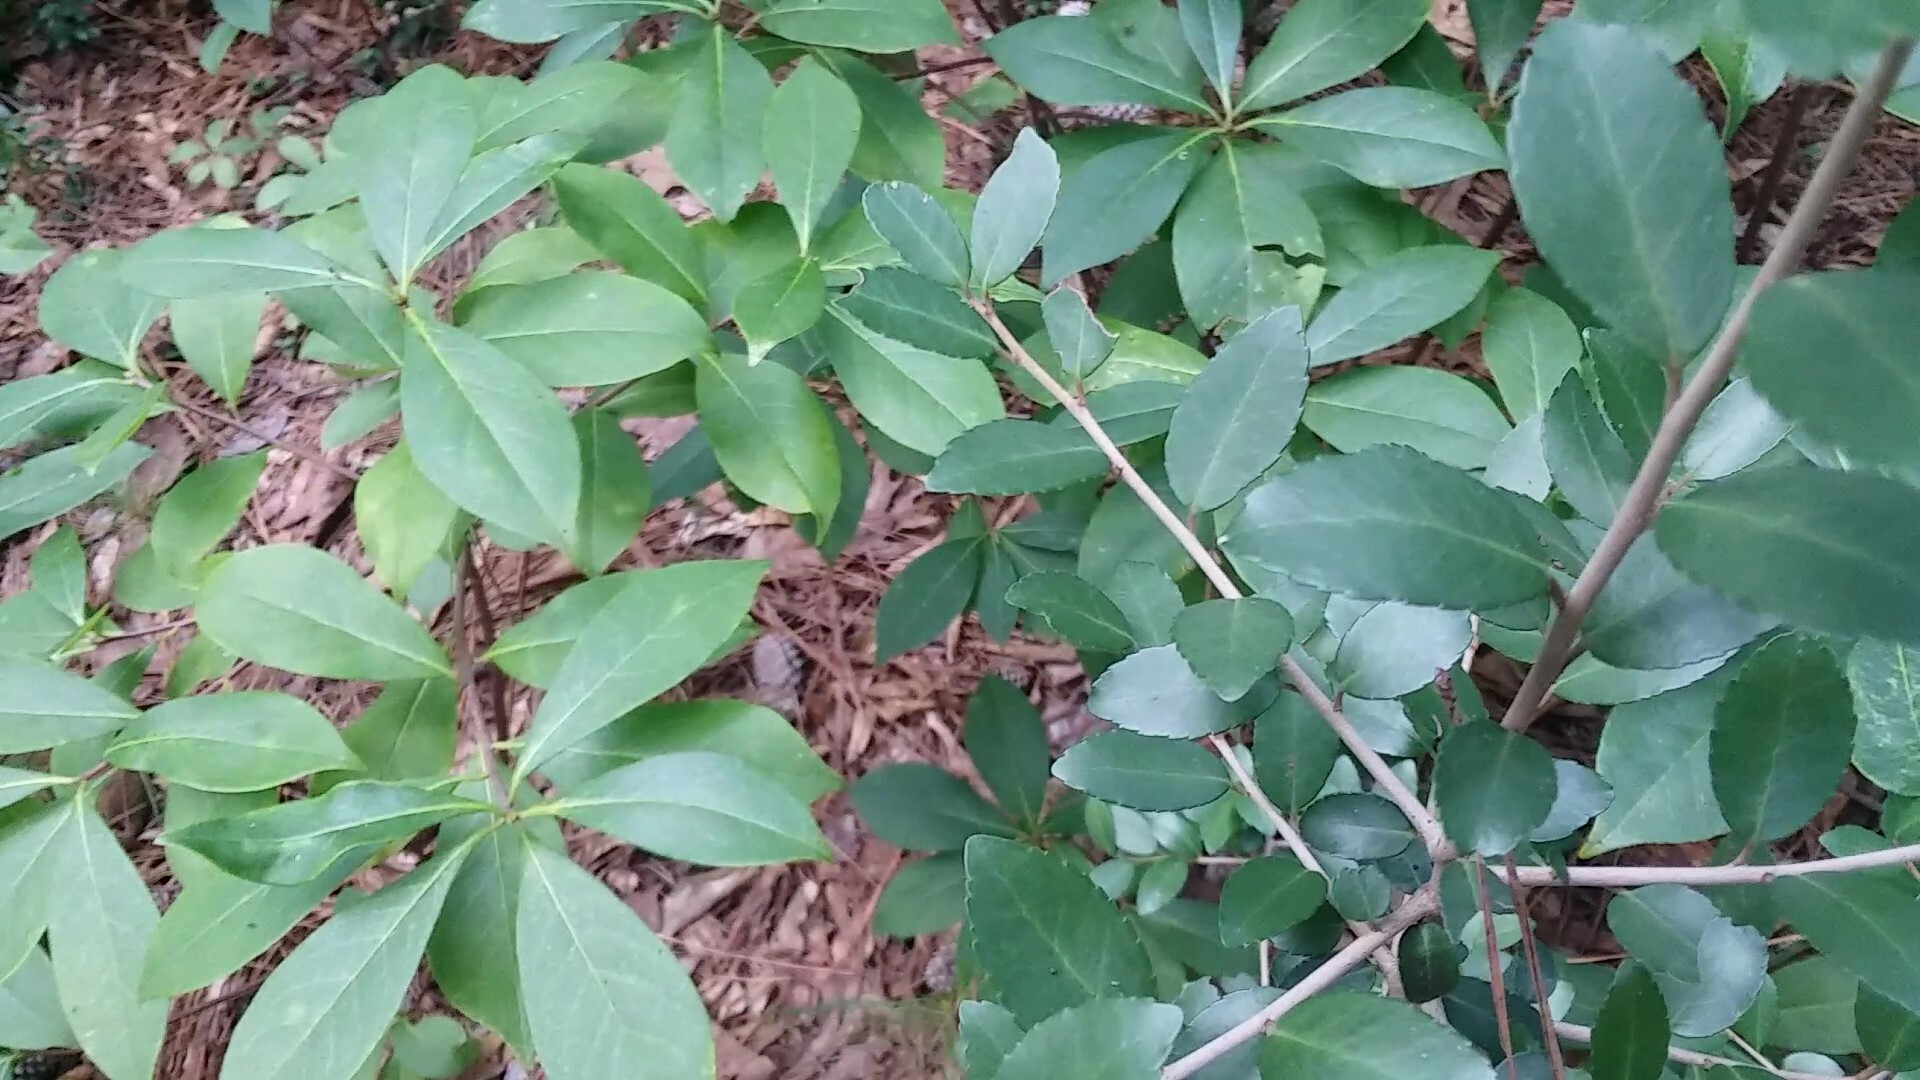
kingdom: Plantae
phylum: Tracheophyta
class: Magnoliopsida
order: Aquifoliales
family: Aquifoliaceae
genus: Ilex
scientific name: Ilex vomitoria
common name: Yaupon holly
